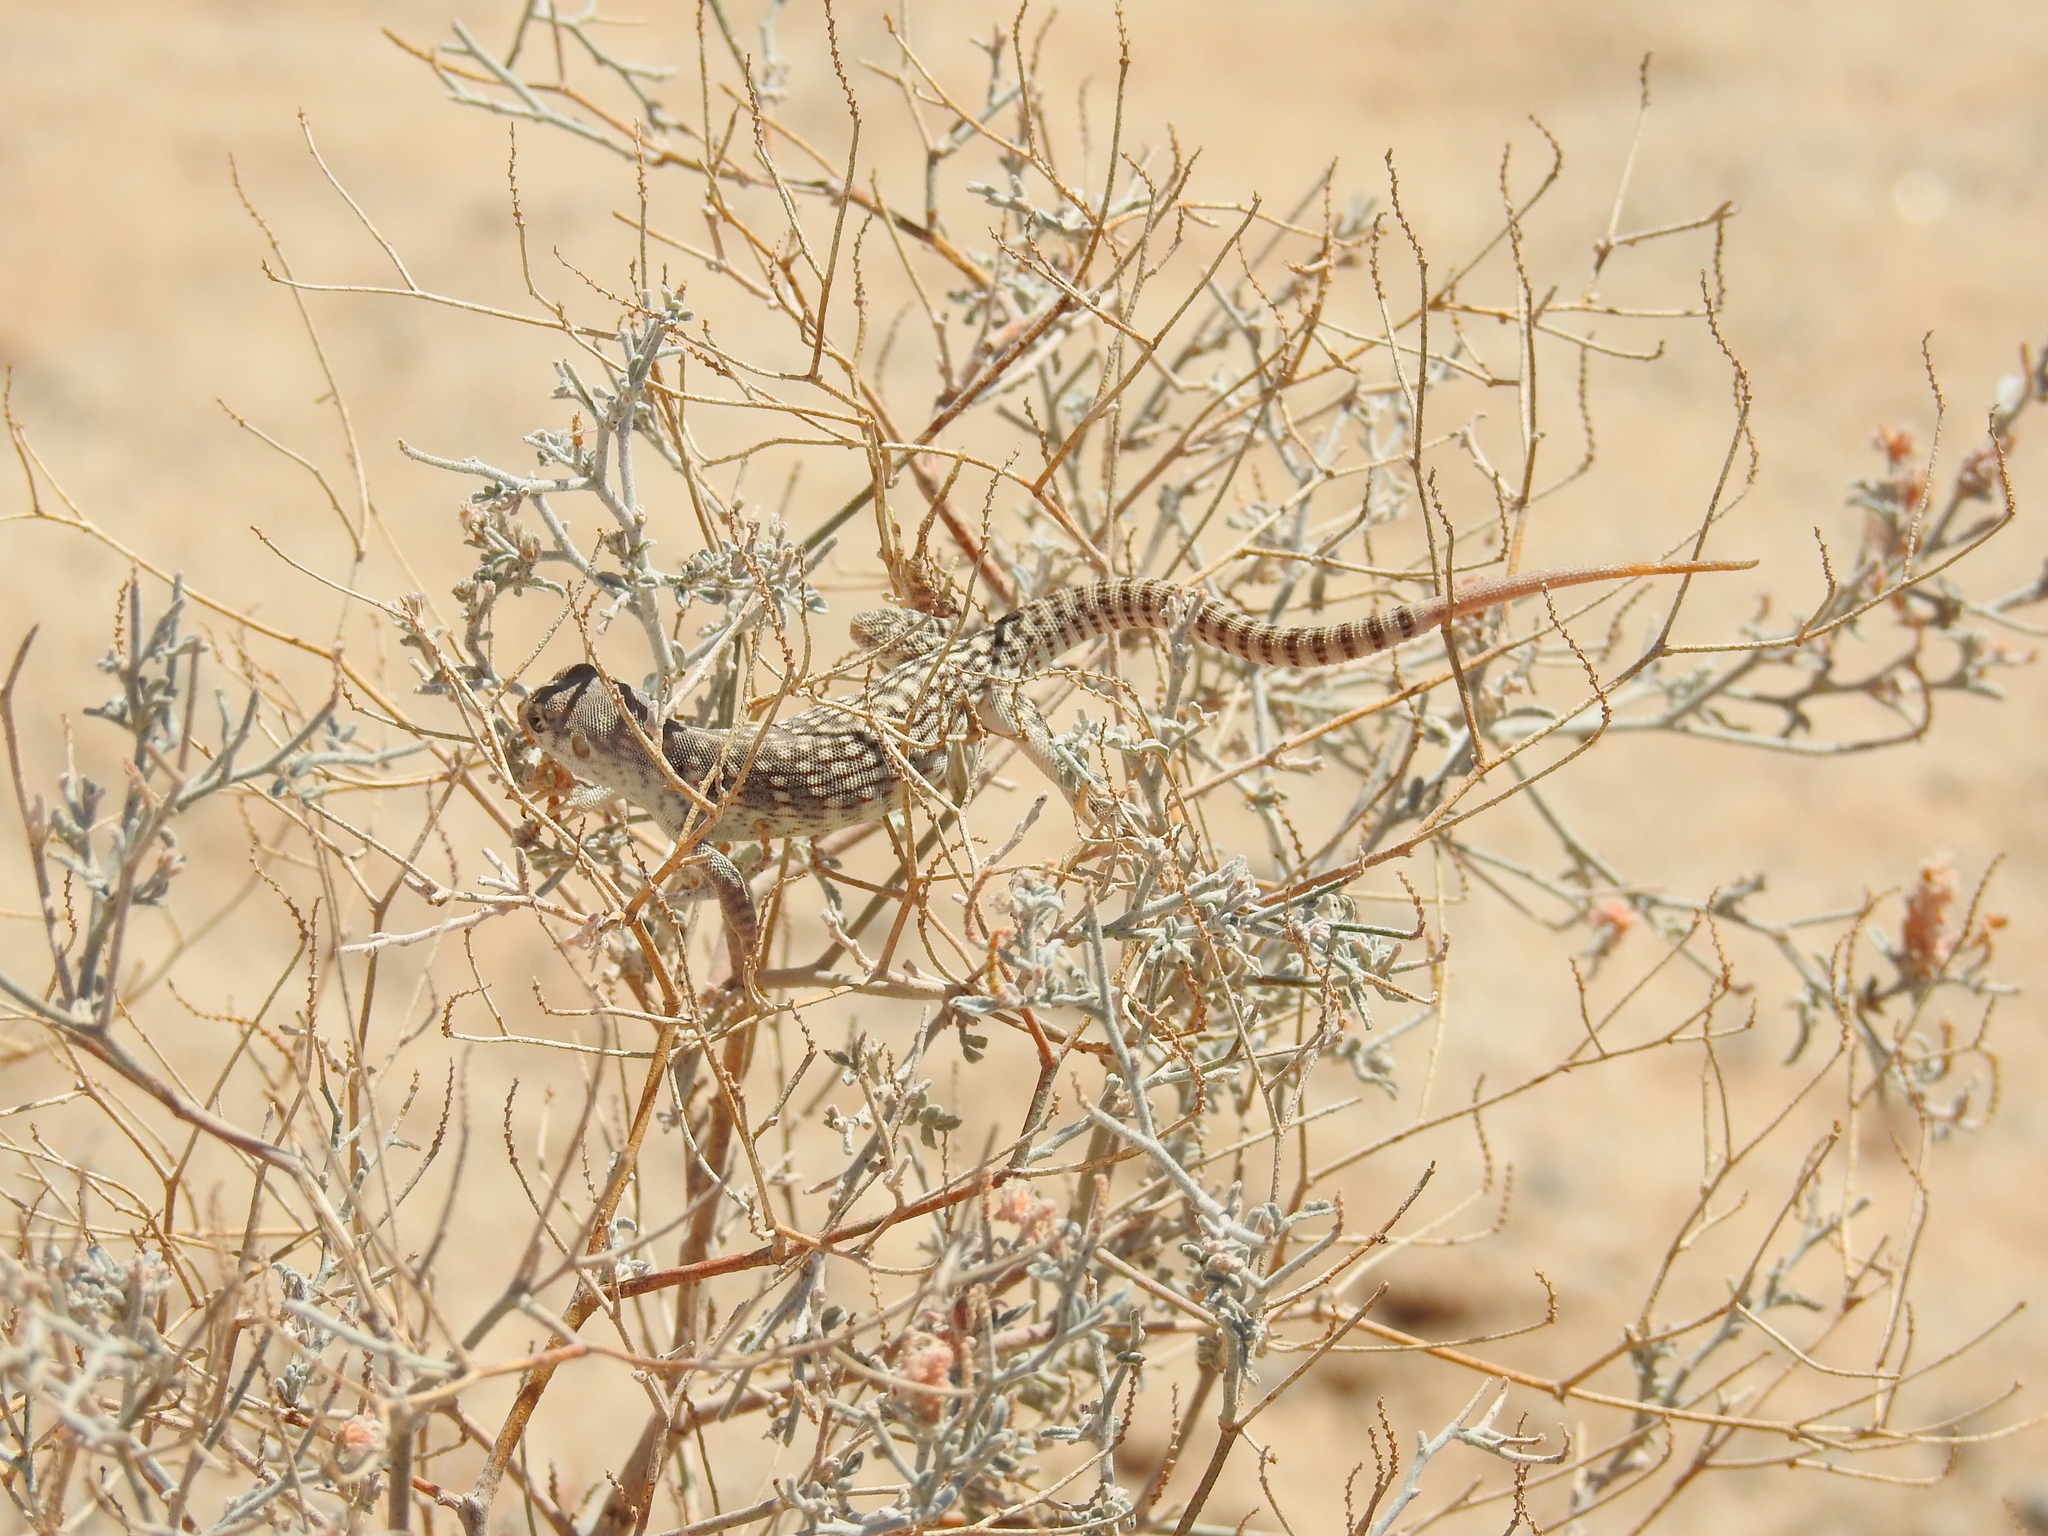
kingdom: Animalia
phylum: Chordata
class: Squamata
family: Iguanidae
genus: Dipsosaurus
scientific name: Dipsosaurus dorsalis
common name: Desert iguana
